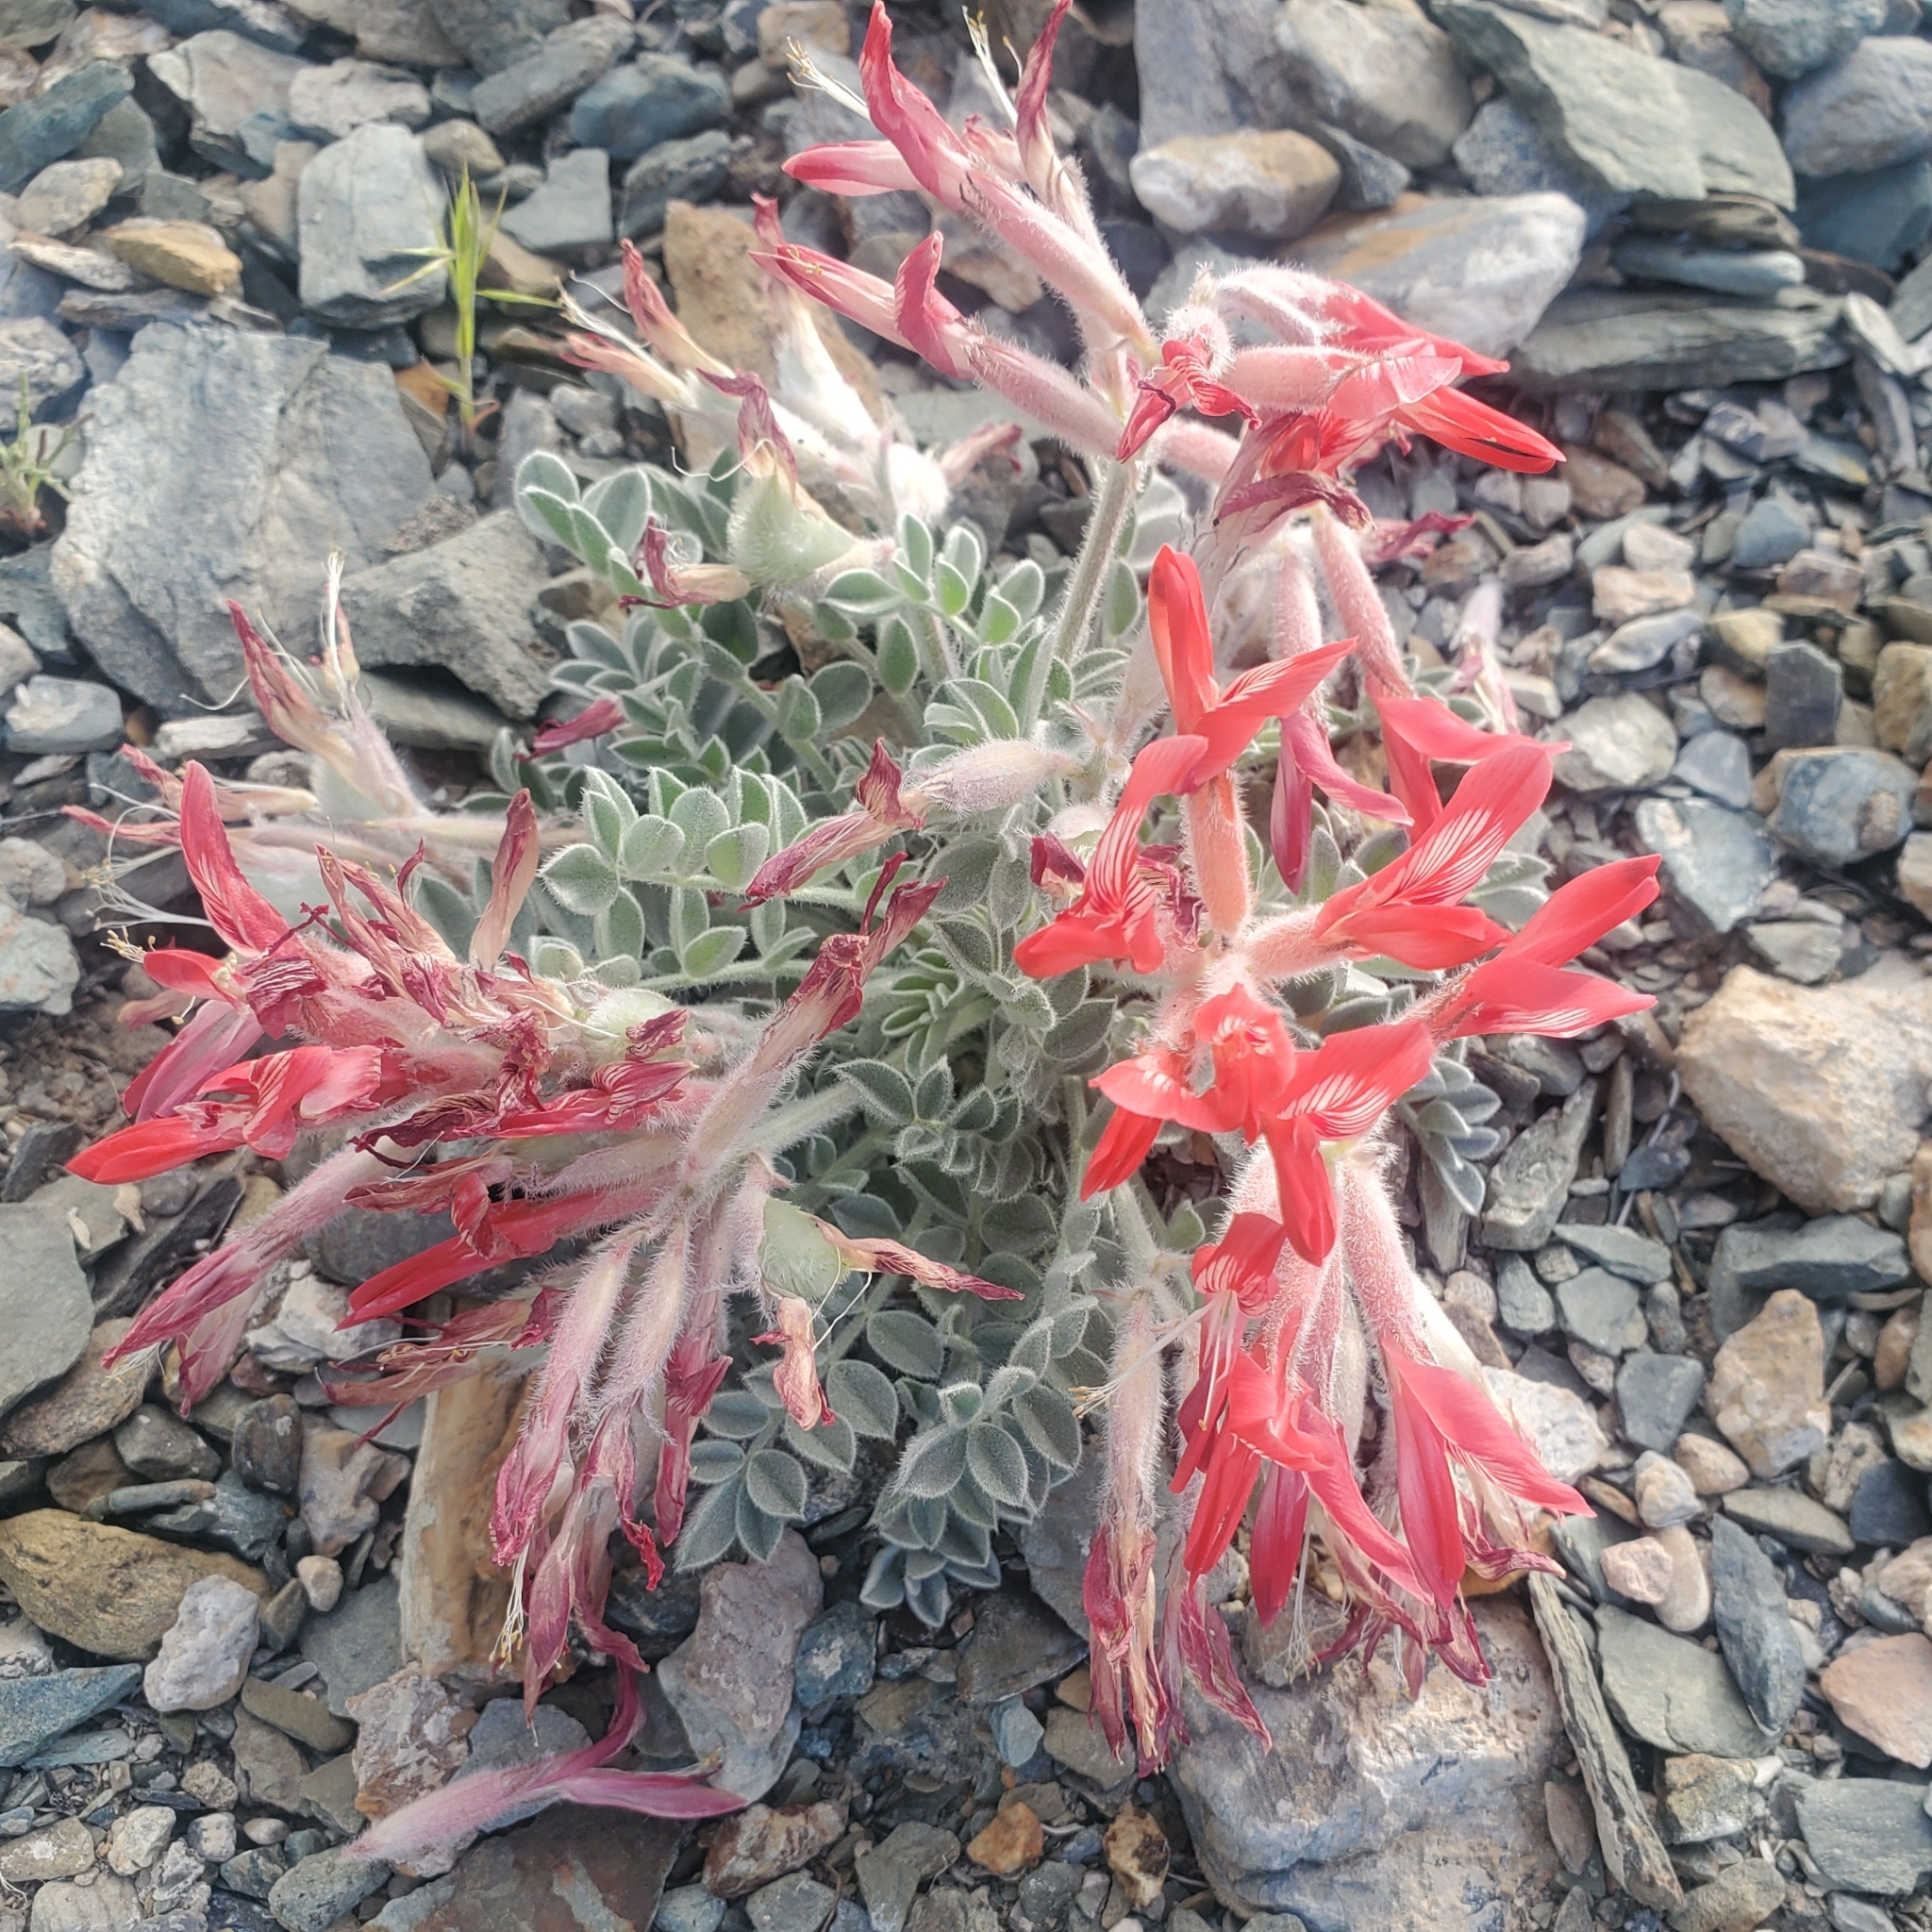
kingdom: Plantae
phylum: Tracheophyta
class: Magnoliopsida
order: Fabales
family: Fabaceae
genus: Astragalus
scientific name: Astragalus coccineus
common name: Scarlet milk-vetch
